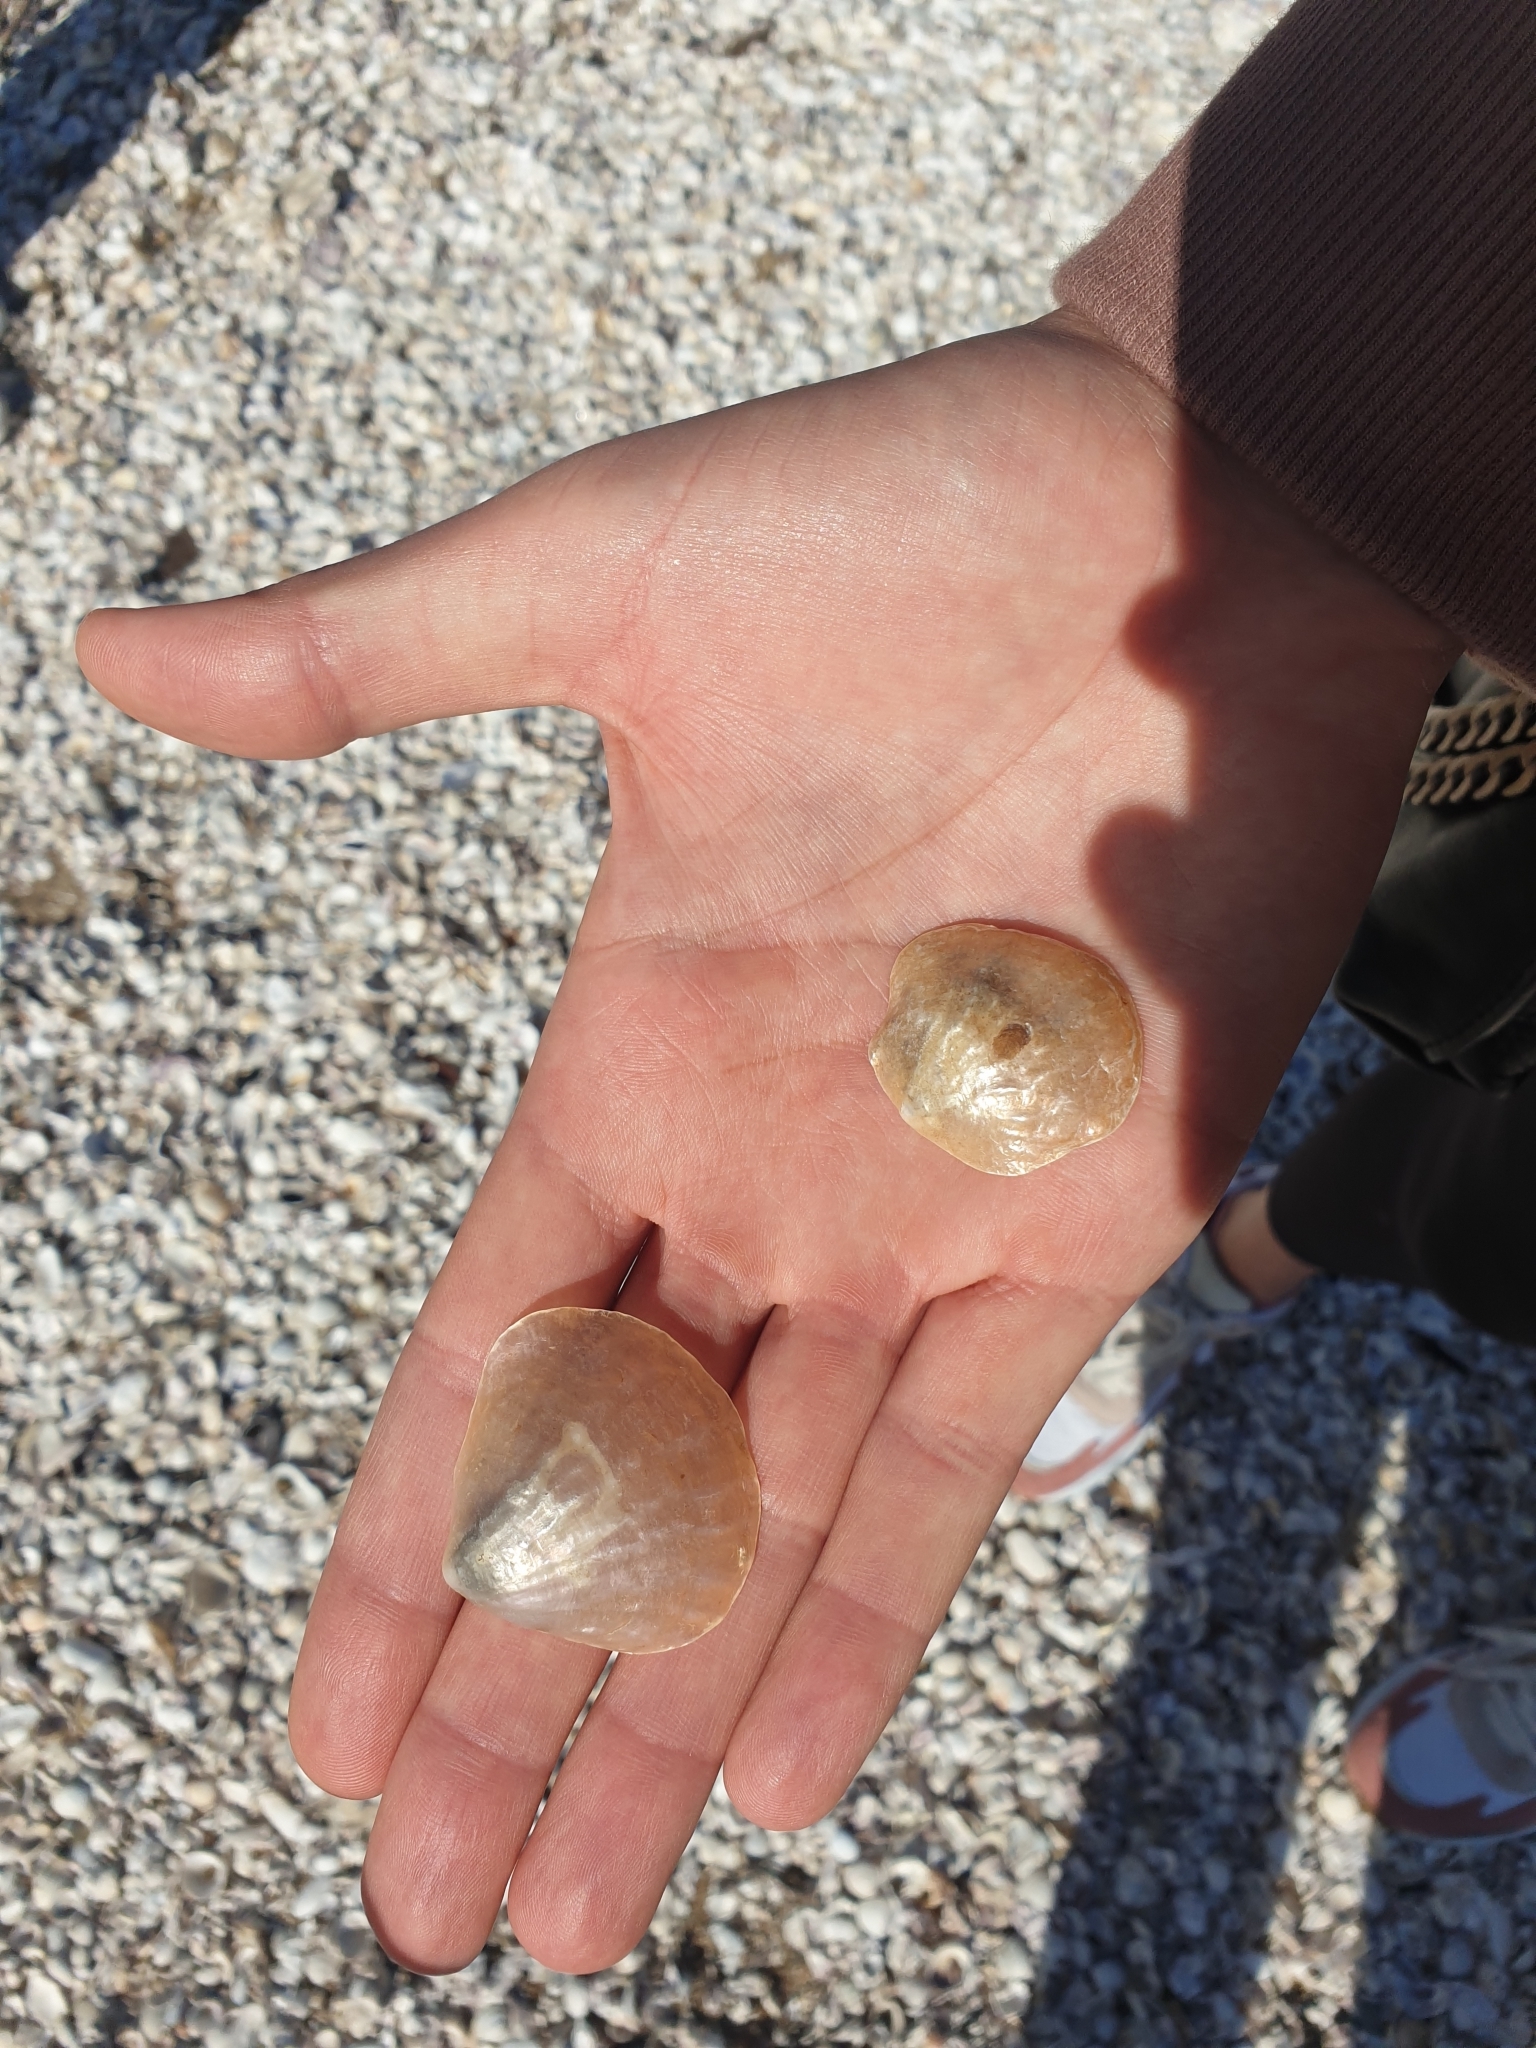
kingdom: Animalia
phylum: Mollusca
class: Bivalvia
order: Pectinida
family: Anomiidae
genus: Anomia
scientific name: Anomia trigonopsis
